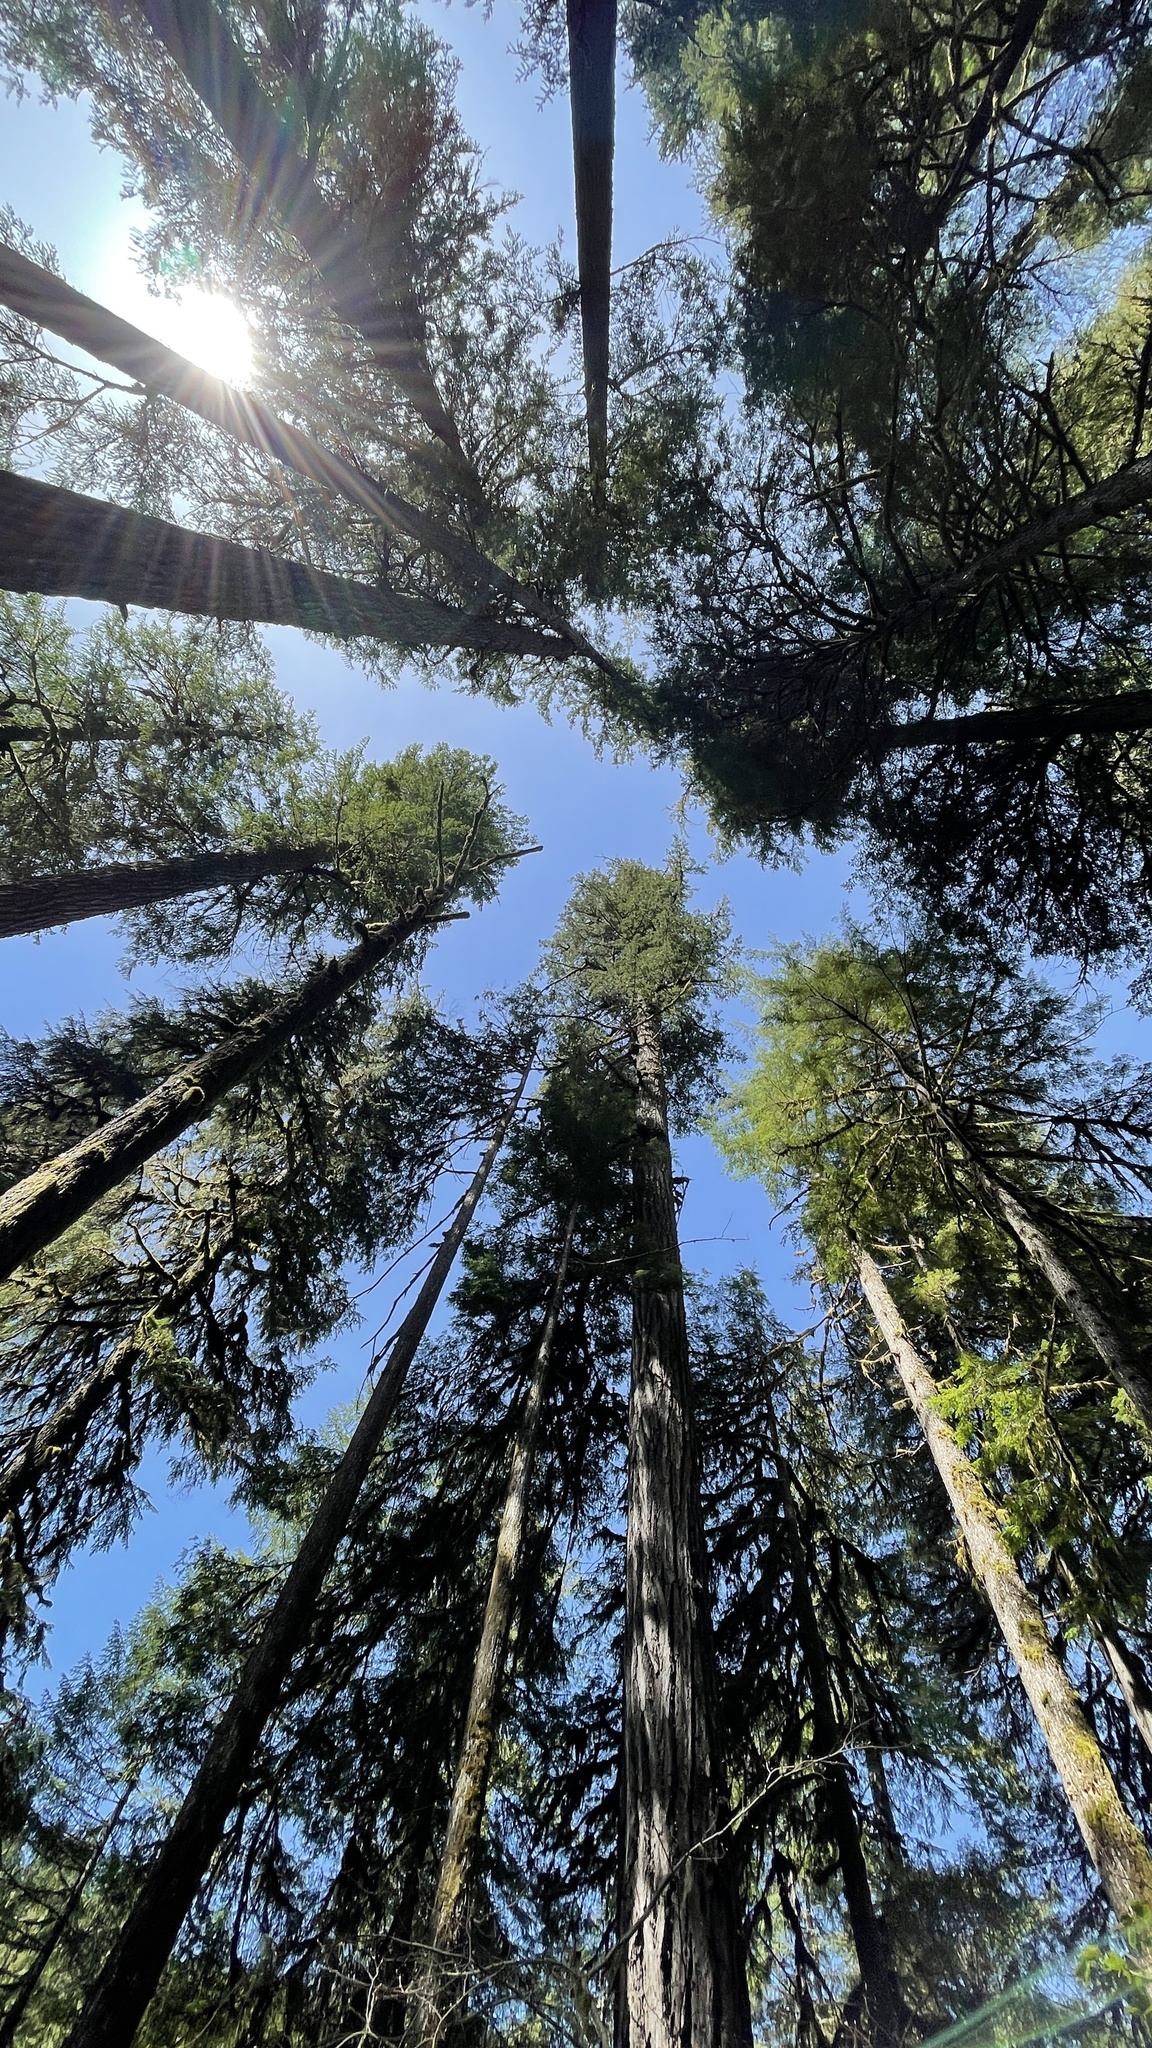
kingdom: Fungi
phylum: Ascomycota
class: Leotiomycetes
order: Helotiales
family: Sclerotiniaceae
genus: Ciboria
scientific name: Ciboria rufofusca
